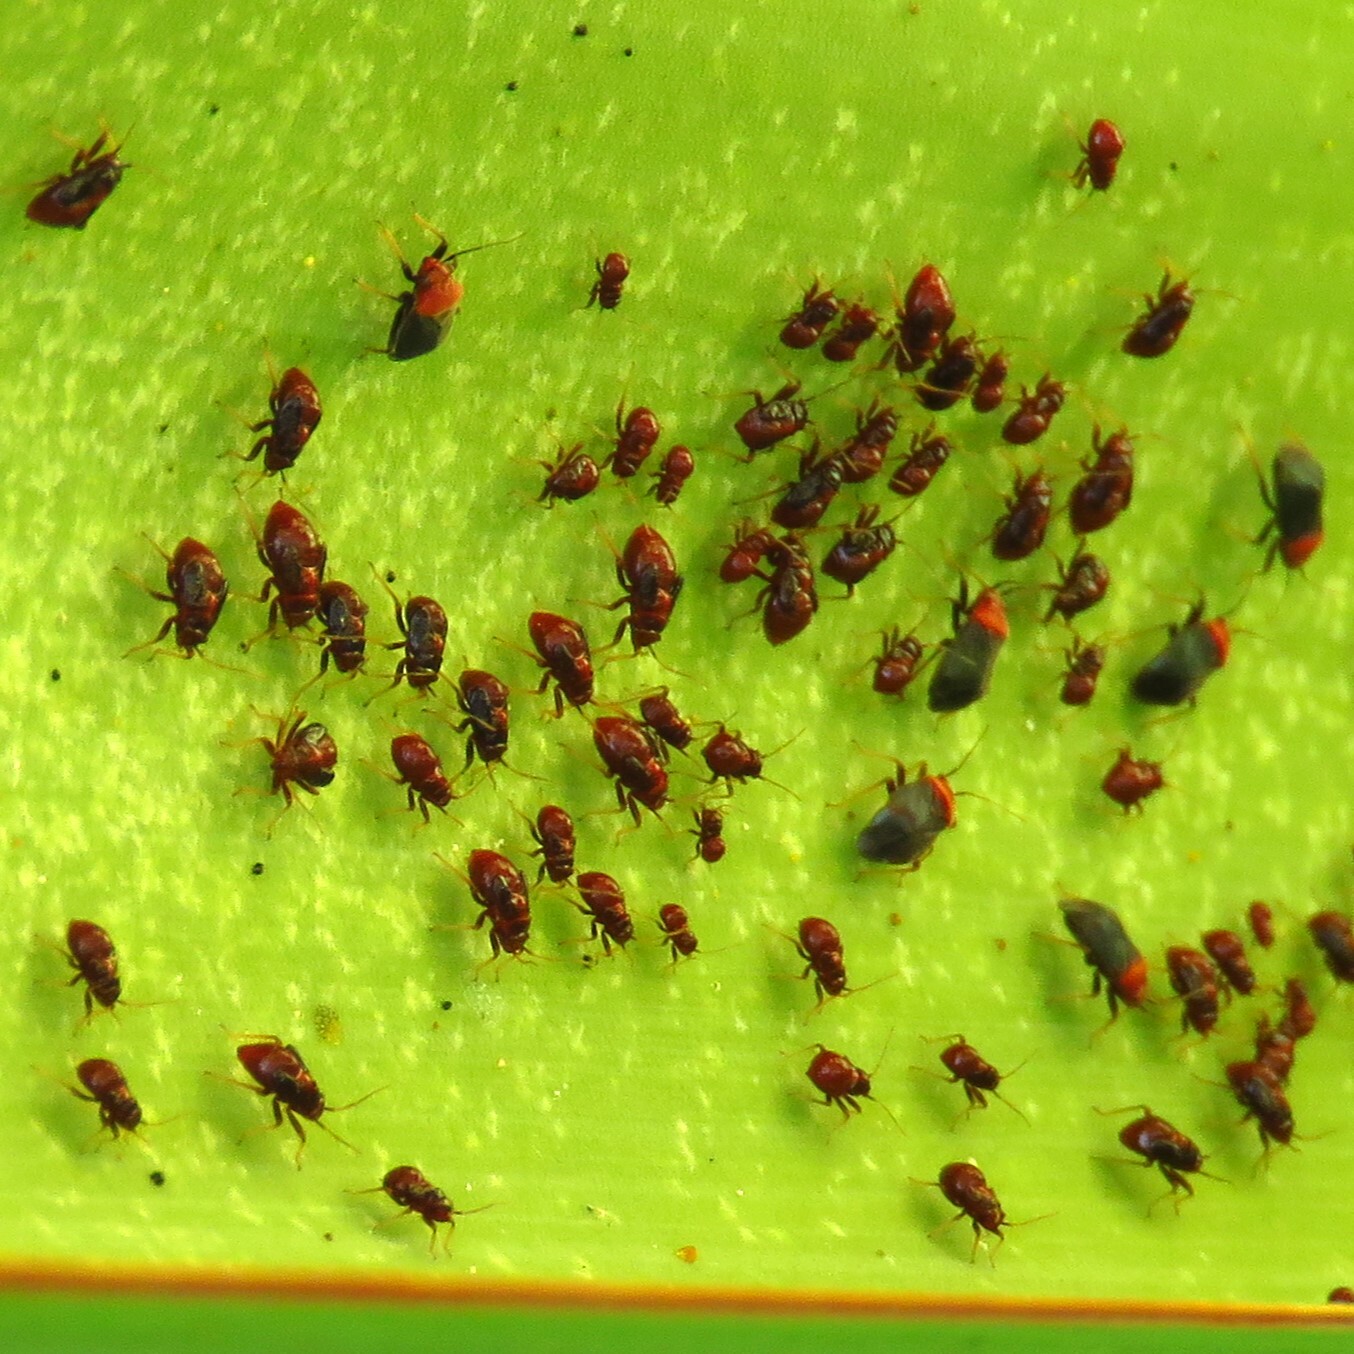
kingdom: Animalia
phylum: Arthropoda
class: Insecta
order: Hemiptera
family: Miridae
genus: Halticotoma
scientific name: Halticotoma valida
